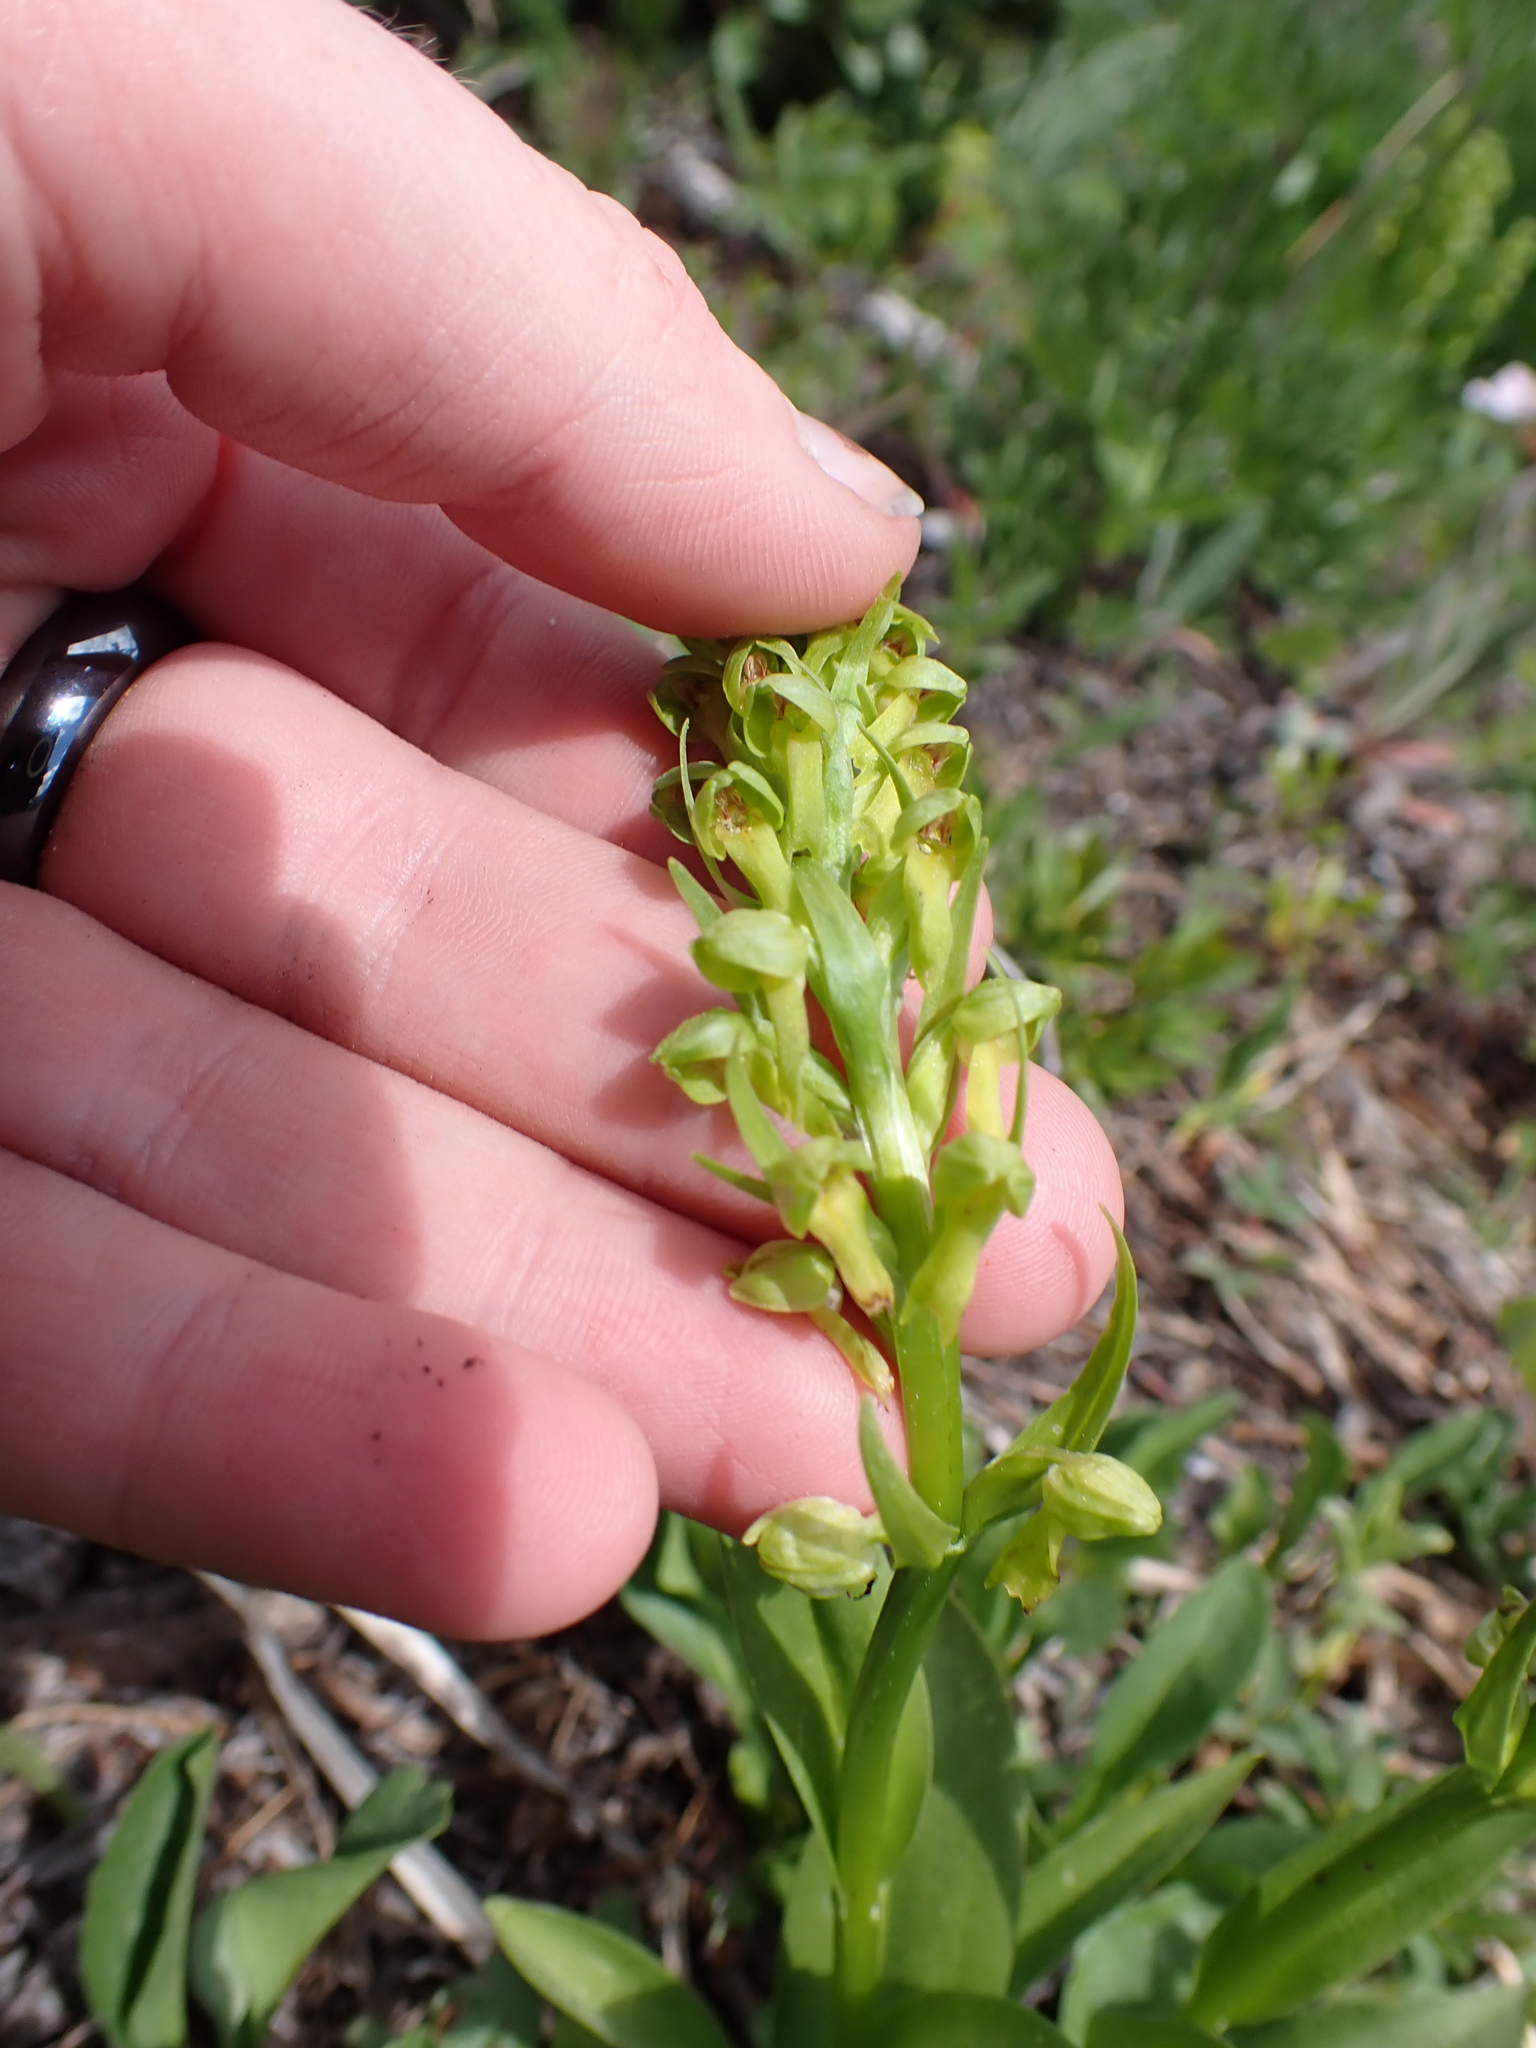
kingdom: Plantae
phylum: Tracheophyta
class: Liliopsida
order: Asparagales
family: Orchidaceae
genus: Dactylorhiza
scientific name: Dactylorhiza viridis
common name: Longbract frog orchid
